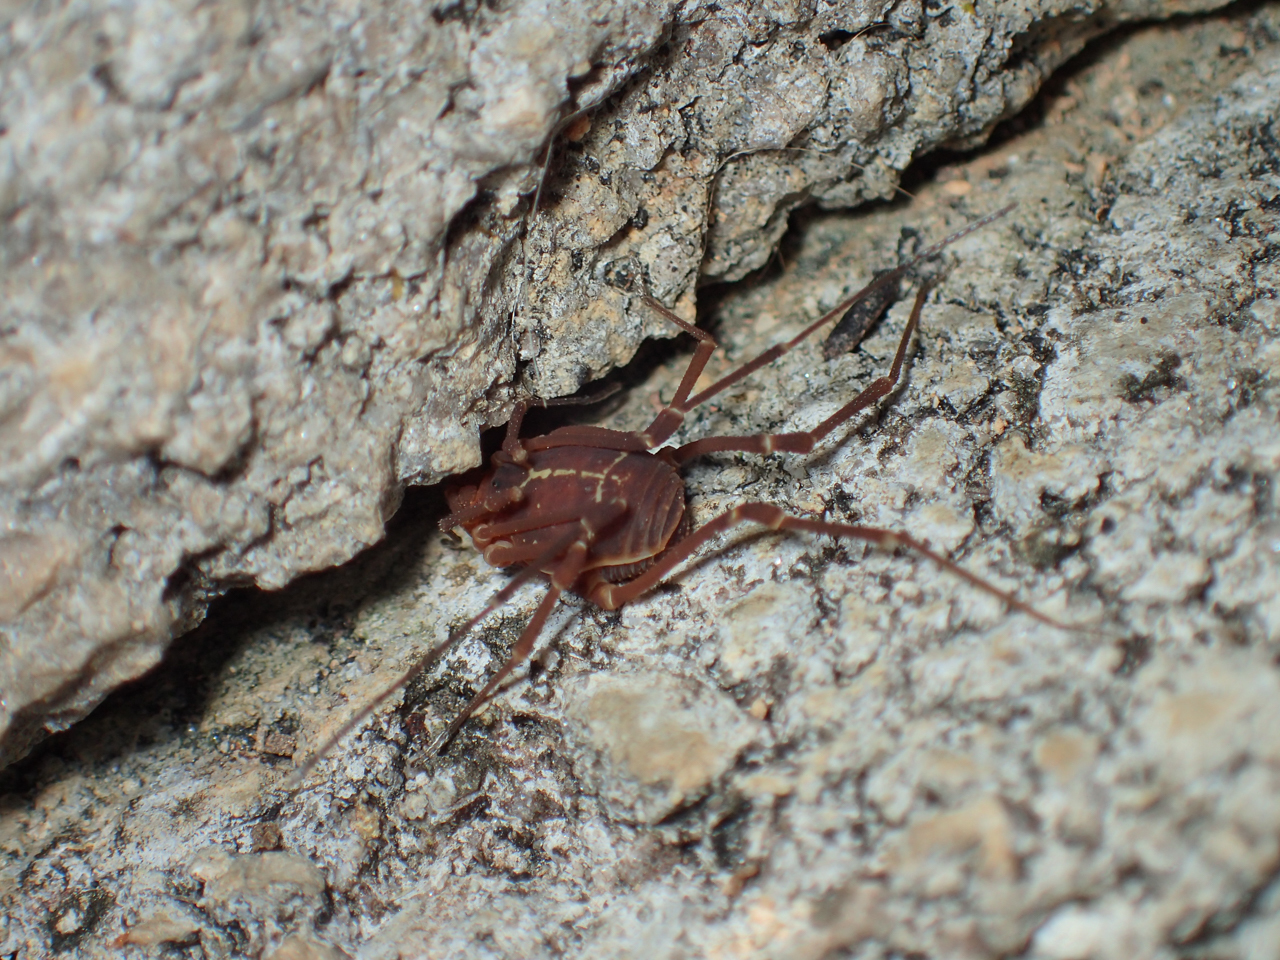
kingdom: Animalia
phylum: Arthropoda
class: Arachnida
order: Opiliones
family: Cosmetidae
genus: Libitioides
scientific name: Libitioides sayi
